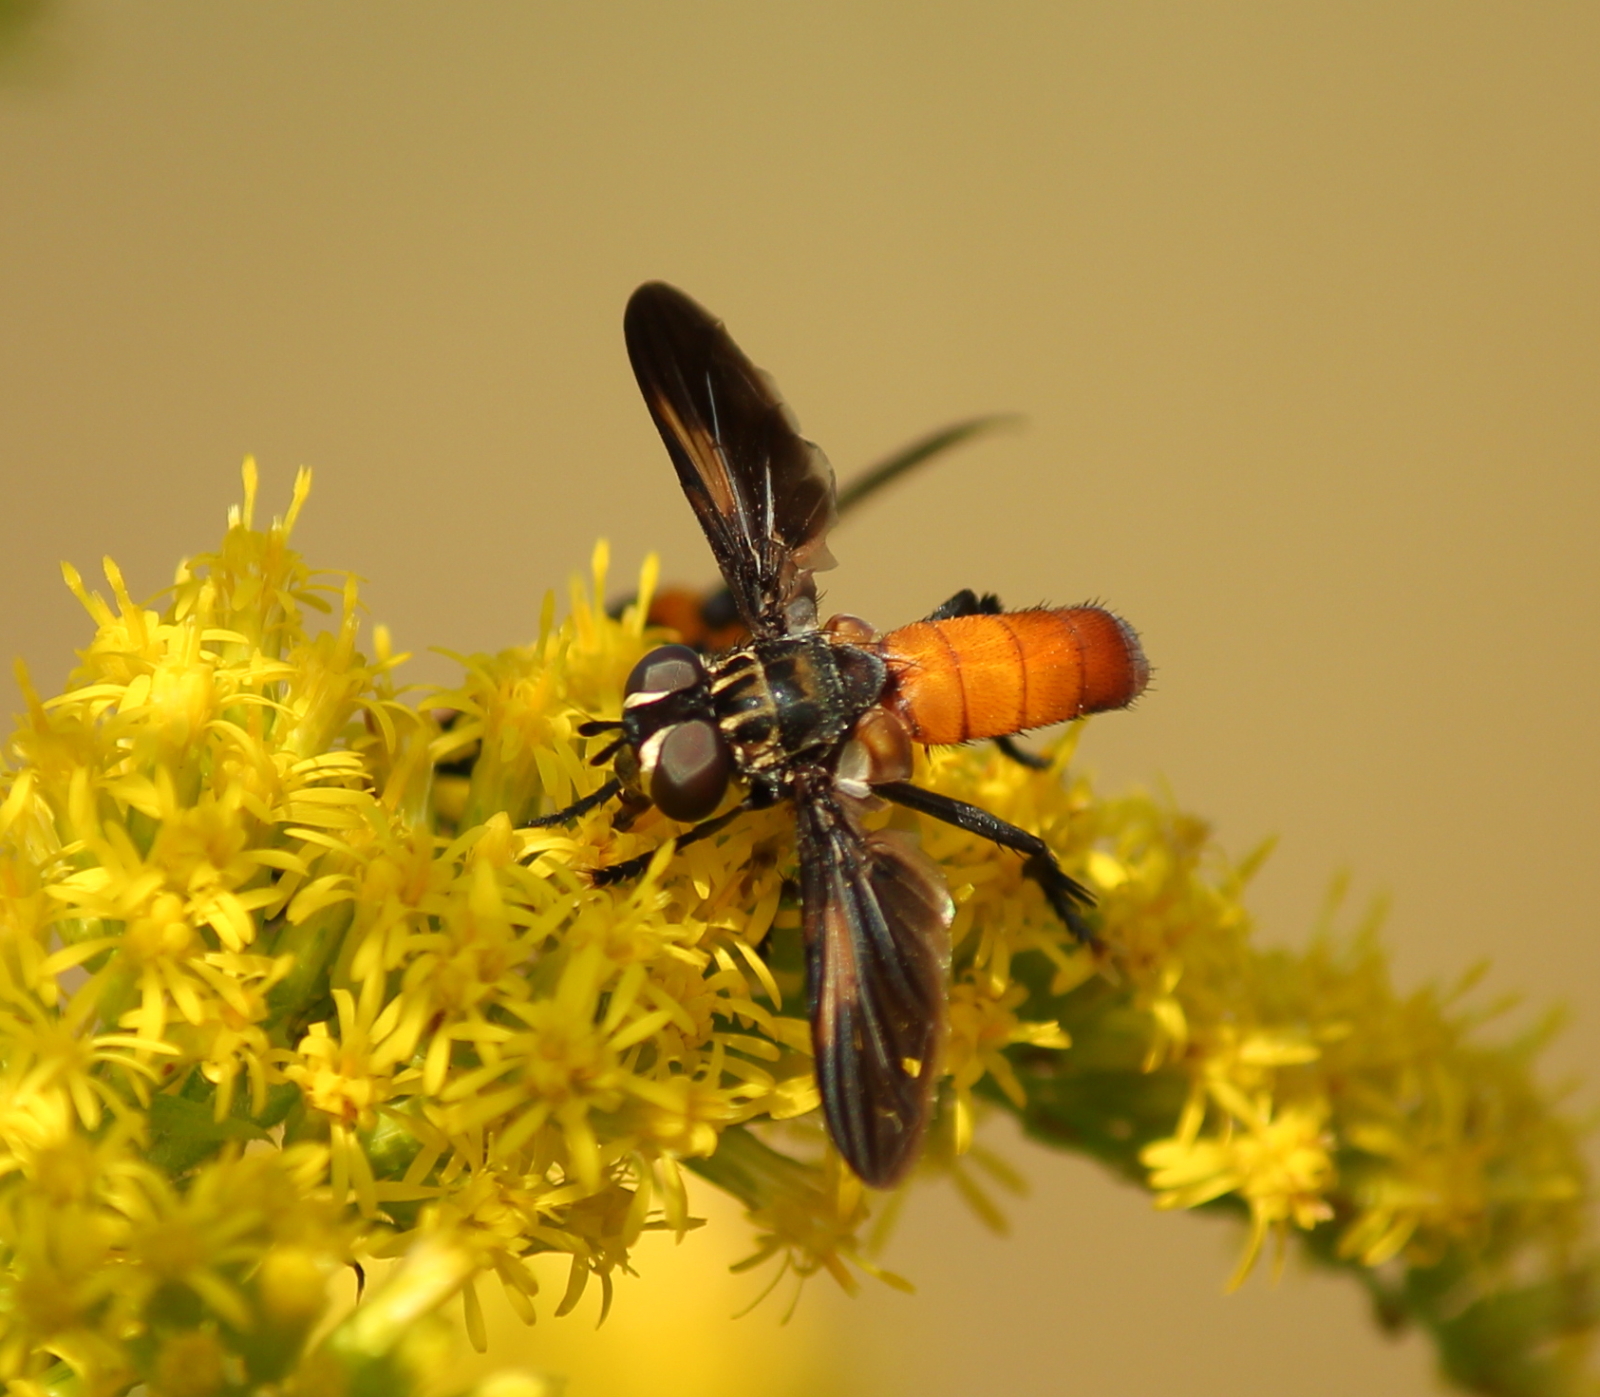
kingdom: Animalia
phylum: Arthropoda
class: Insecta
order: Diptera
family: Tachinidae
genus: Trichopoda
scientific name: Trichopoda pennipes
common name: Tachinid fly
